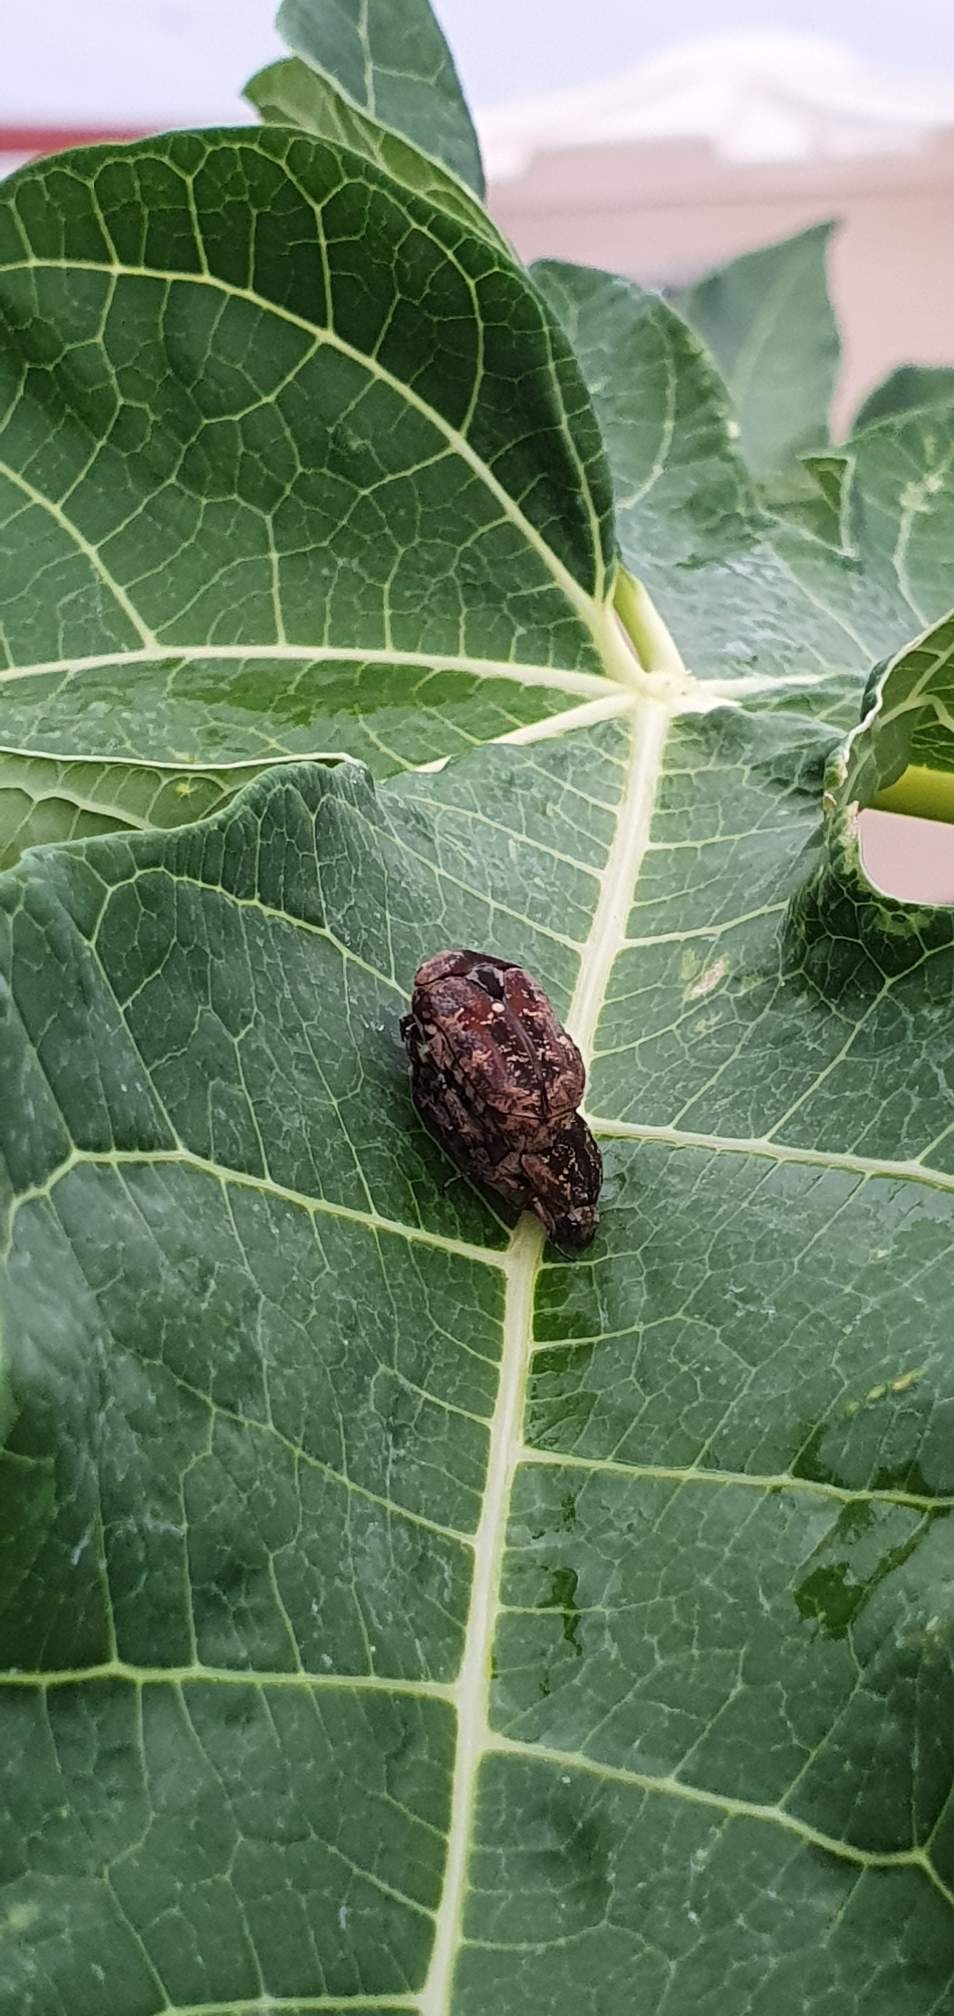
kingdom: Animalia
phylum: Arthropoda
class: Insecta
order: Coleoptera
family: Scarabaeidae
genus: Protaetia
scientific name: Protaetia fusca
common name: Mango flower beetle
